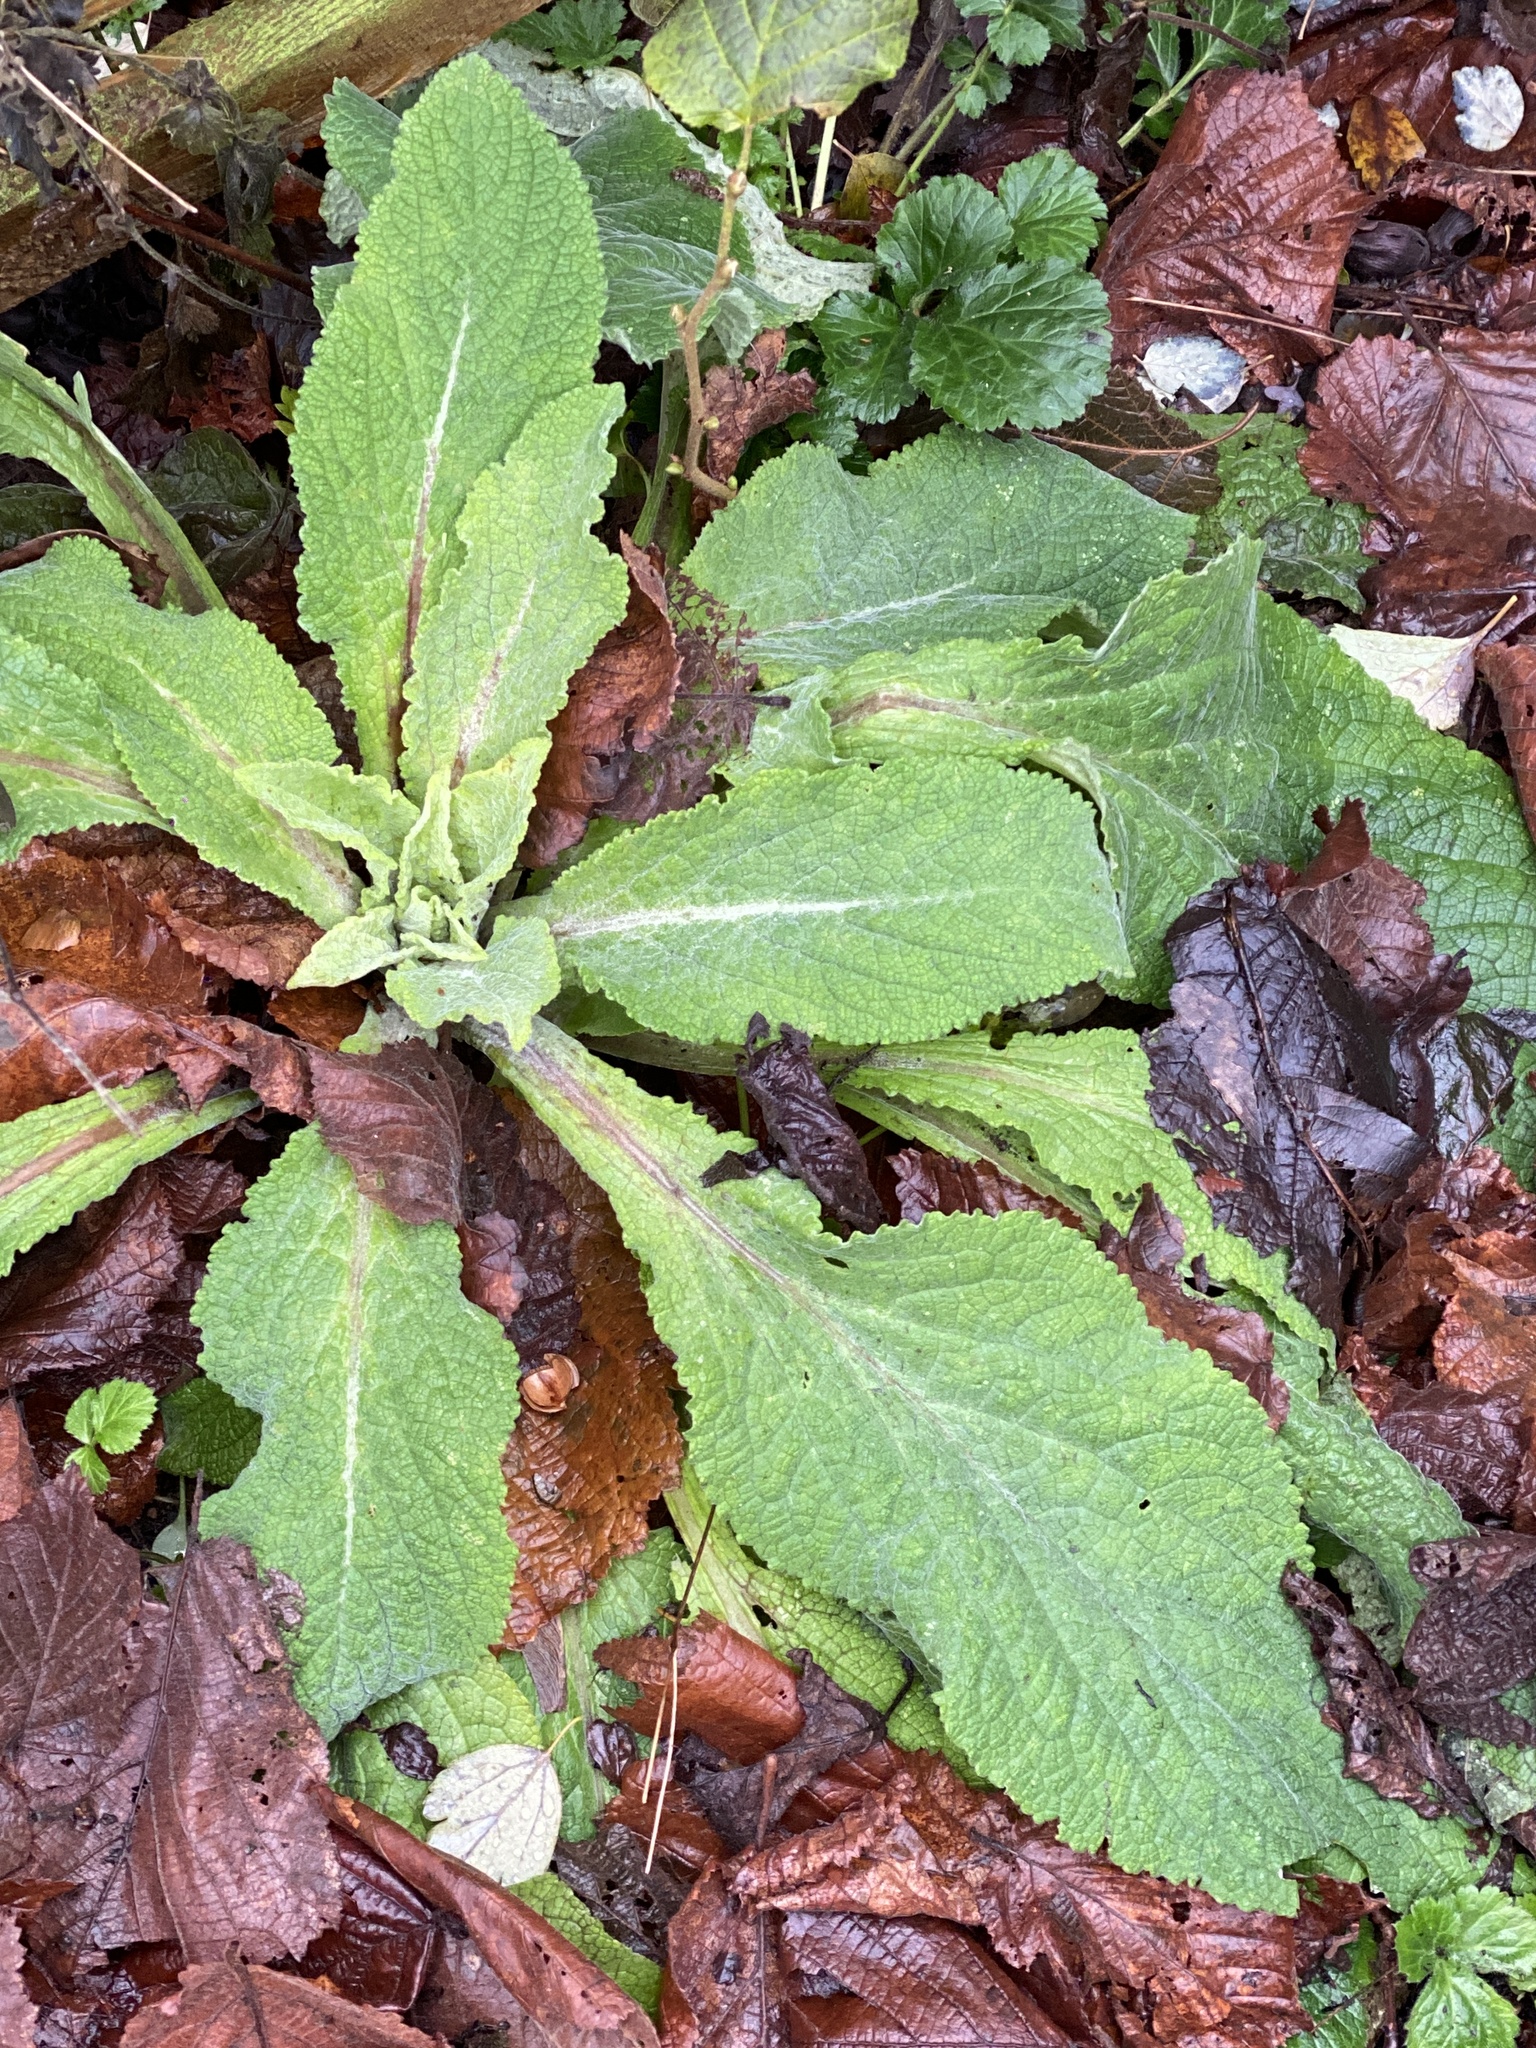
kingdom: Plantae
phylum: Tracheophyta
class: Magnoliopsida
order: Lamiales
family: Plantaginaceae
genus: Digitalis
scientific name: Digitalis purpurea
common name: Foxglove
